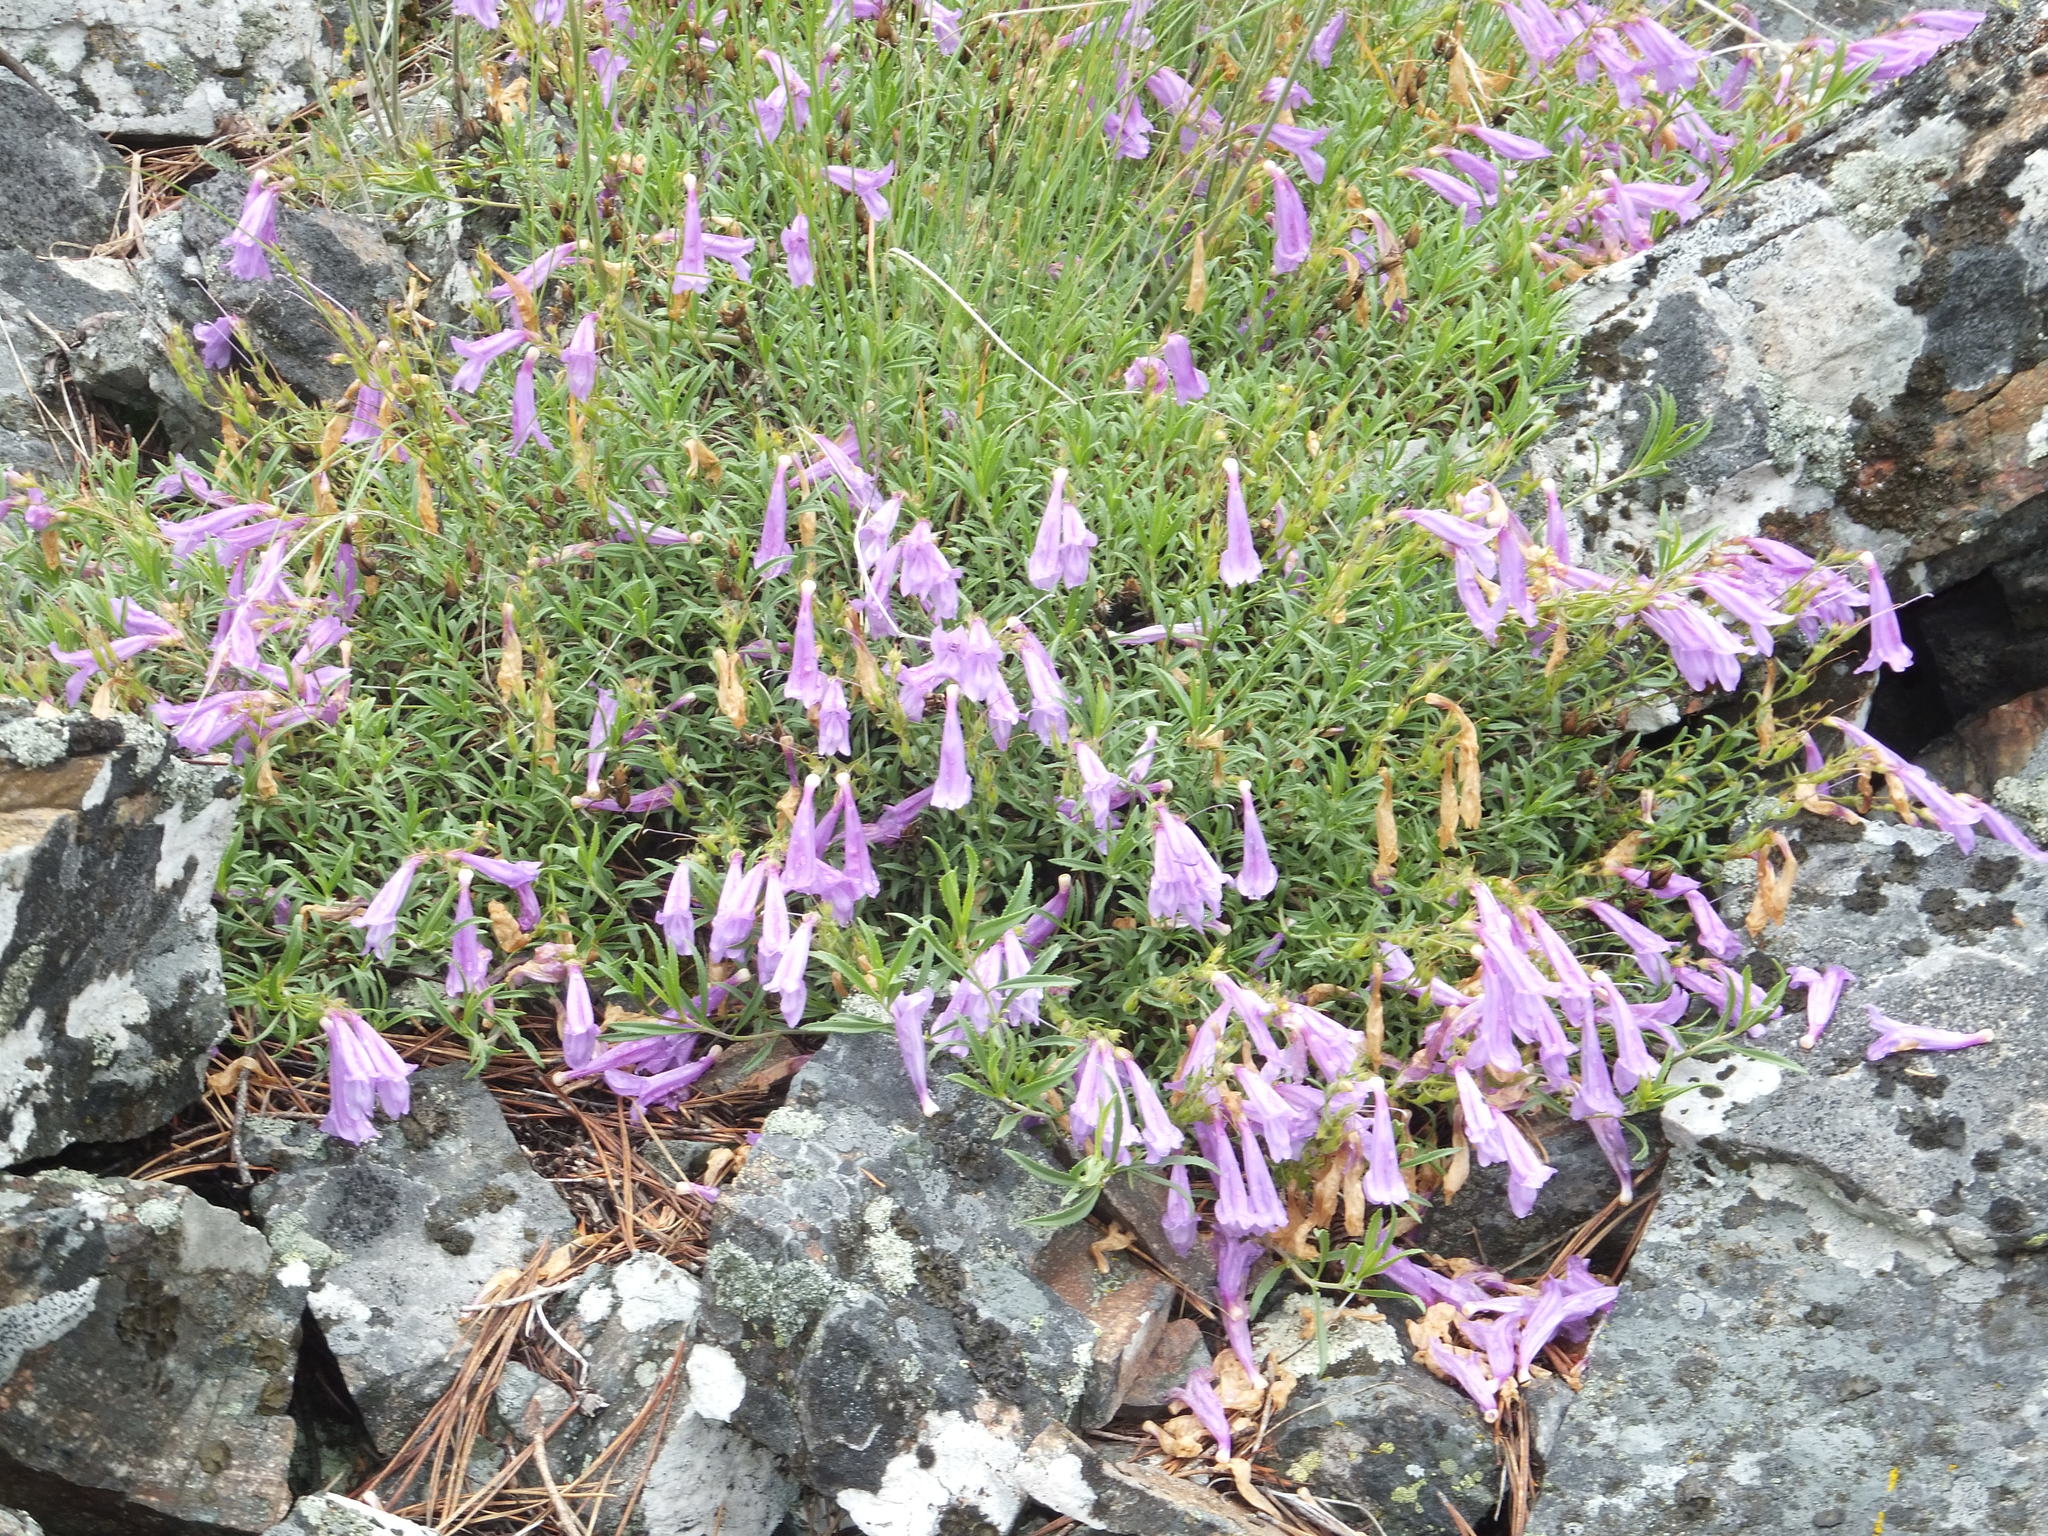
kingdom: Plantae
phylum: Tracheophyta
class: Magnoliopsida
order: Lamiales
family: Plantaginaceae
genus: Penstemon
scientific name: Penstemon fruticosus
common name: Bush penstemon
